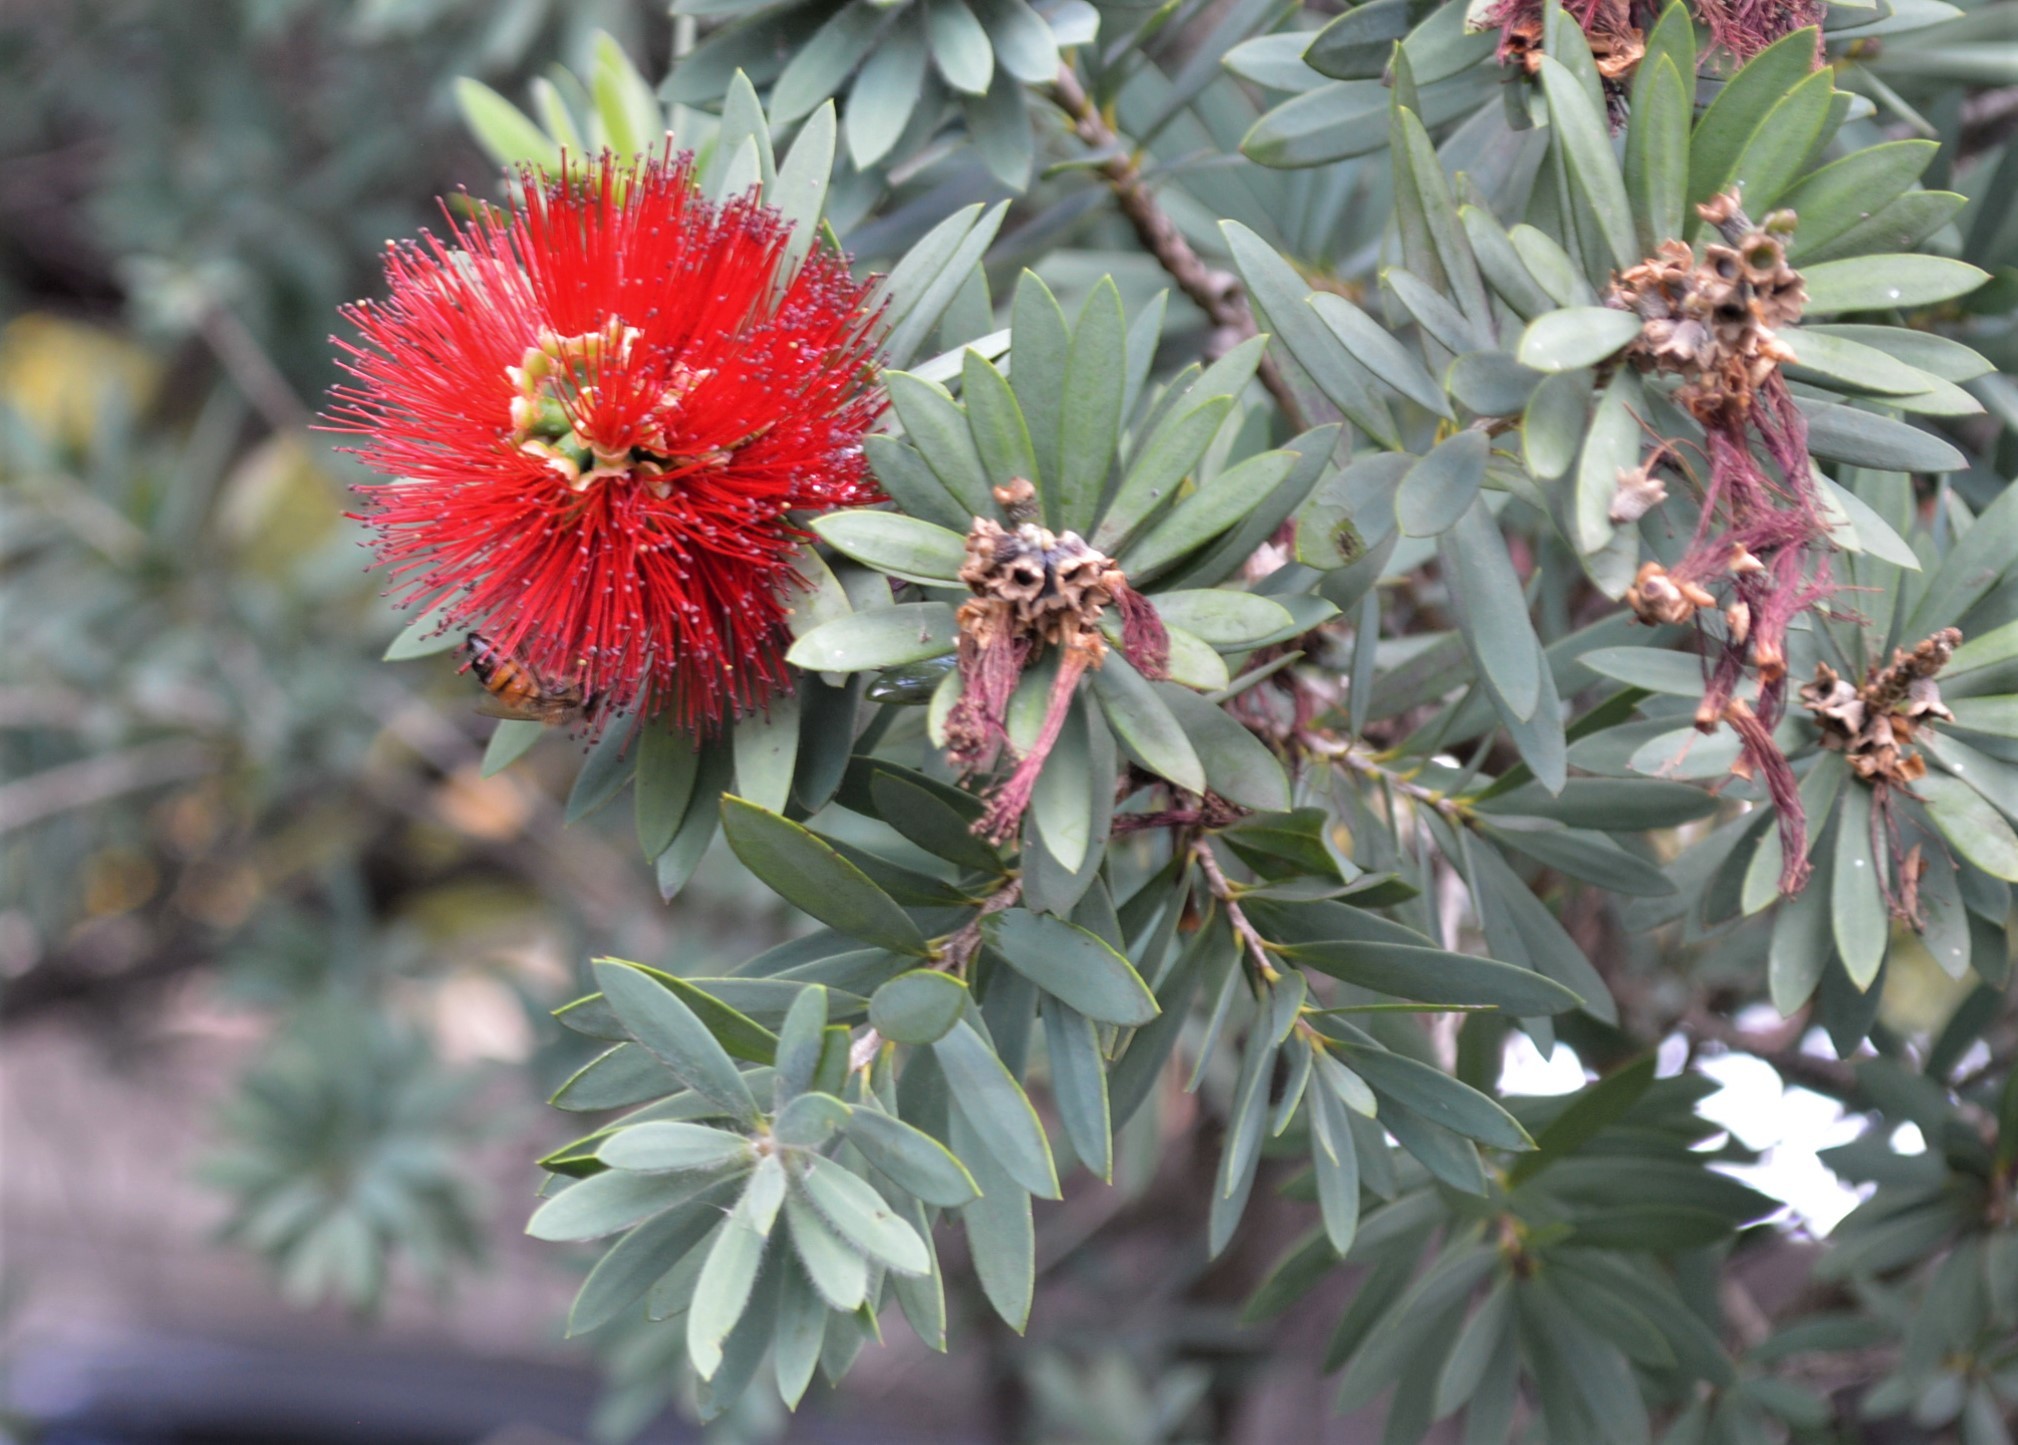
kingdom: Animalia
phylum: Arthropoda
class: Insecta
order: Hymenoptera
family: Apidae
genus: Apis
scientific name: Apis mellifera
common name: Honey bee
